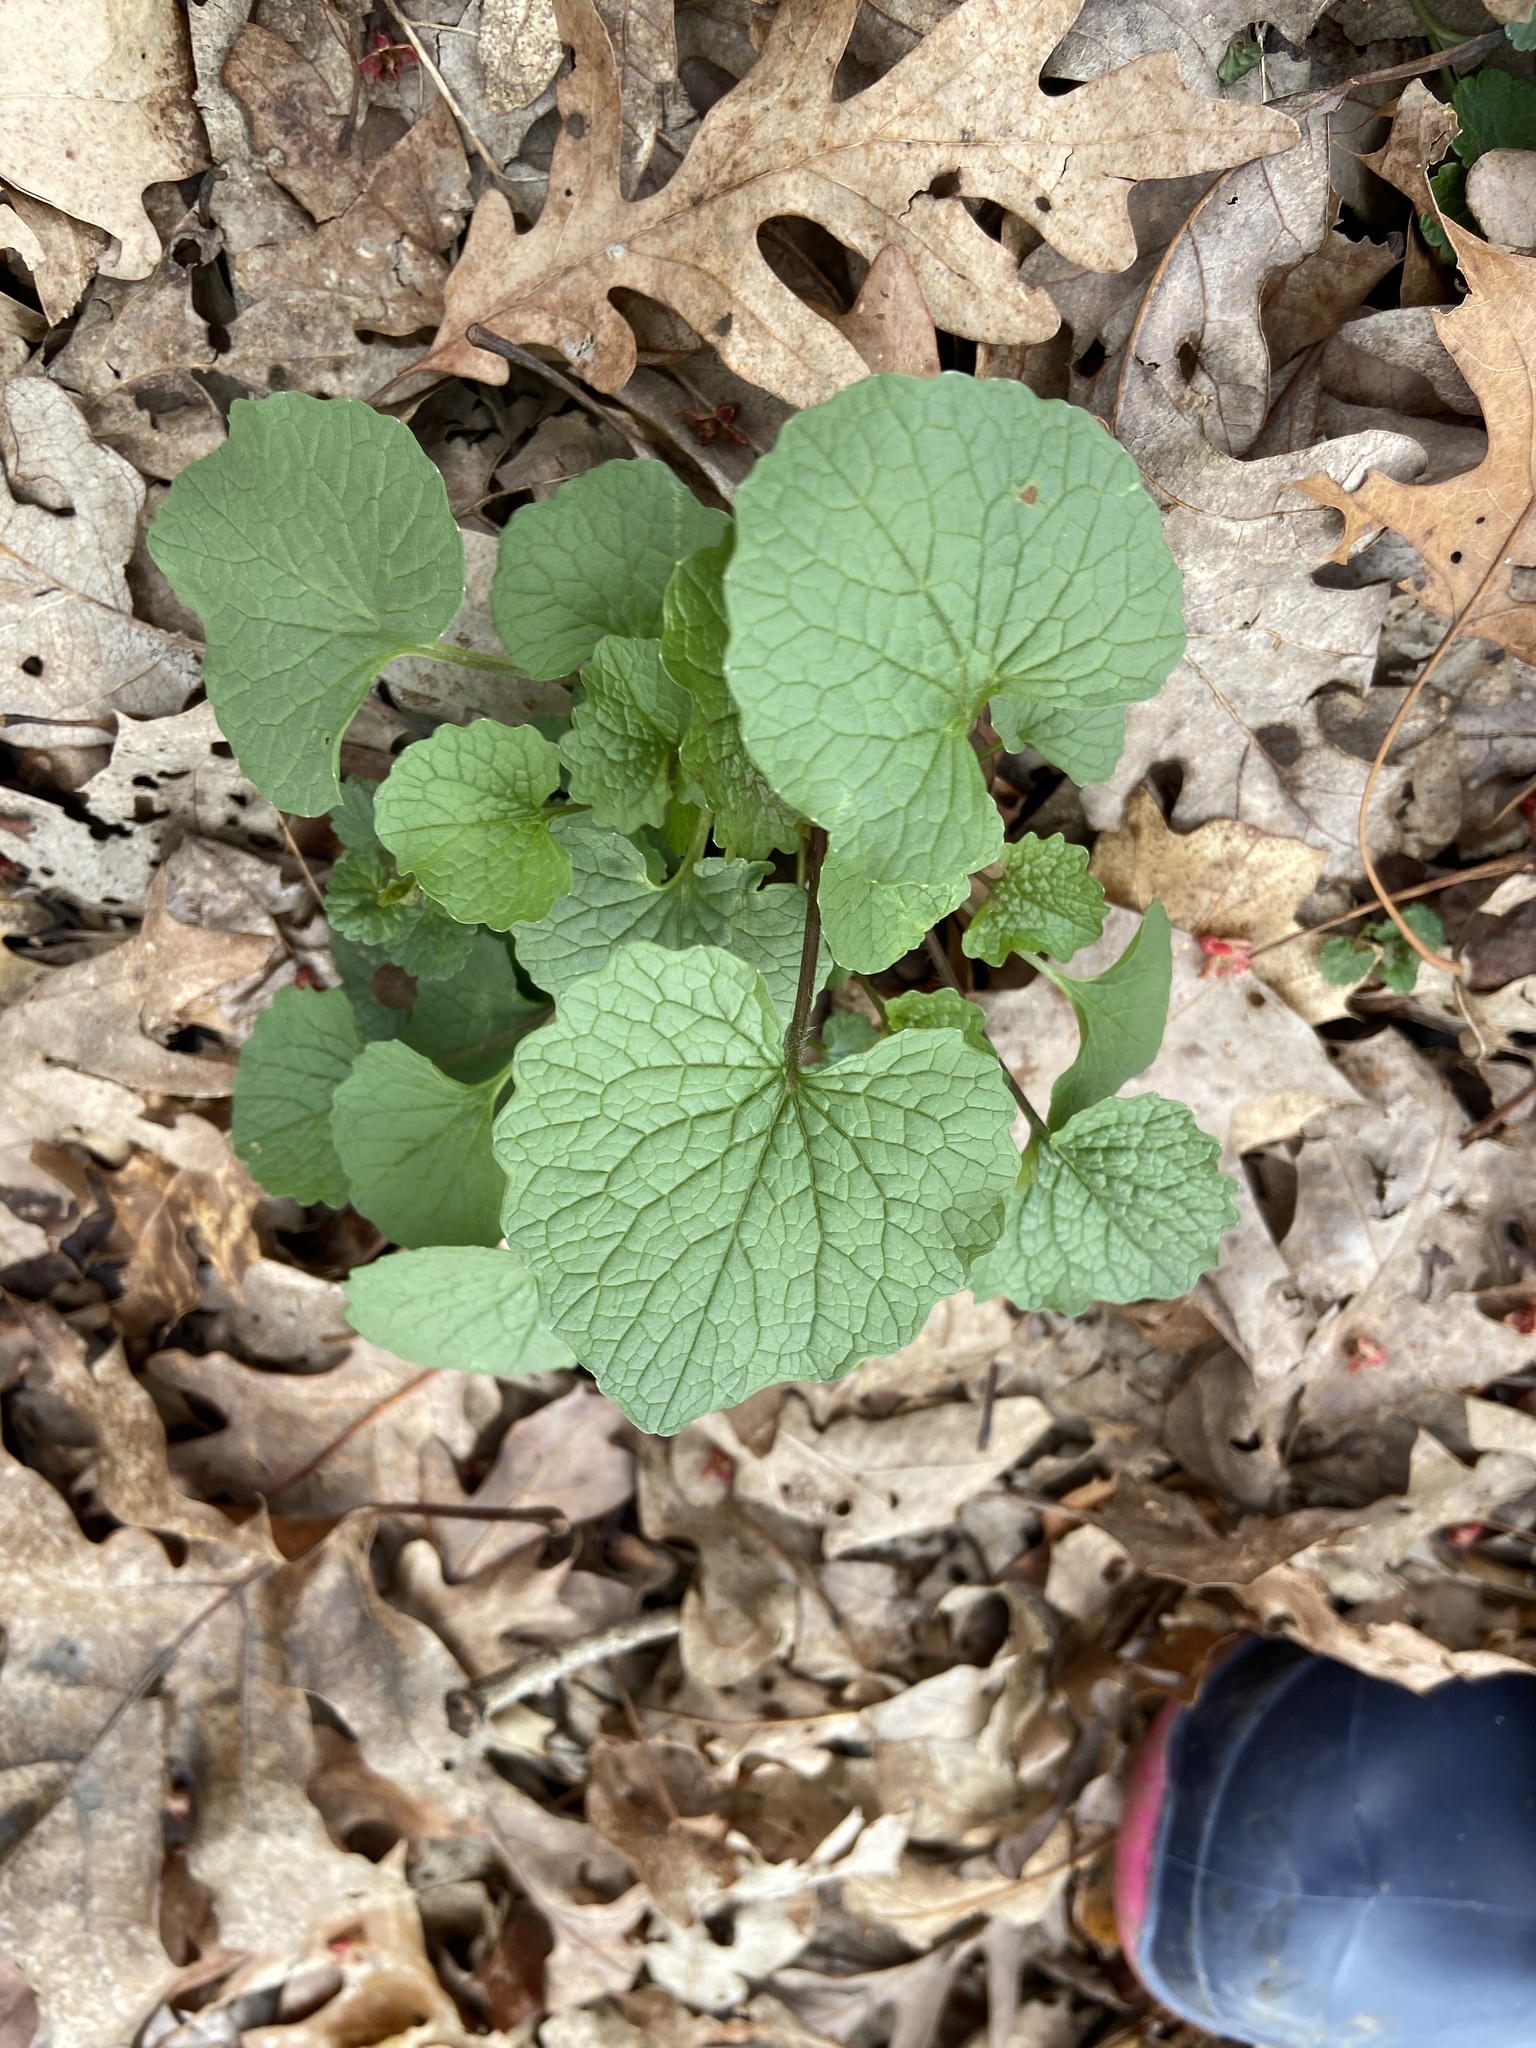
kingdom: Plantae
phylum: Tracheophyta
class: Magnoliopsida
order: Brassicales
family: Brassicaceae
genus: Alliaria
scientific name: Alliaria petiolata
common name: Garlic mustard
